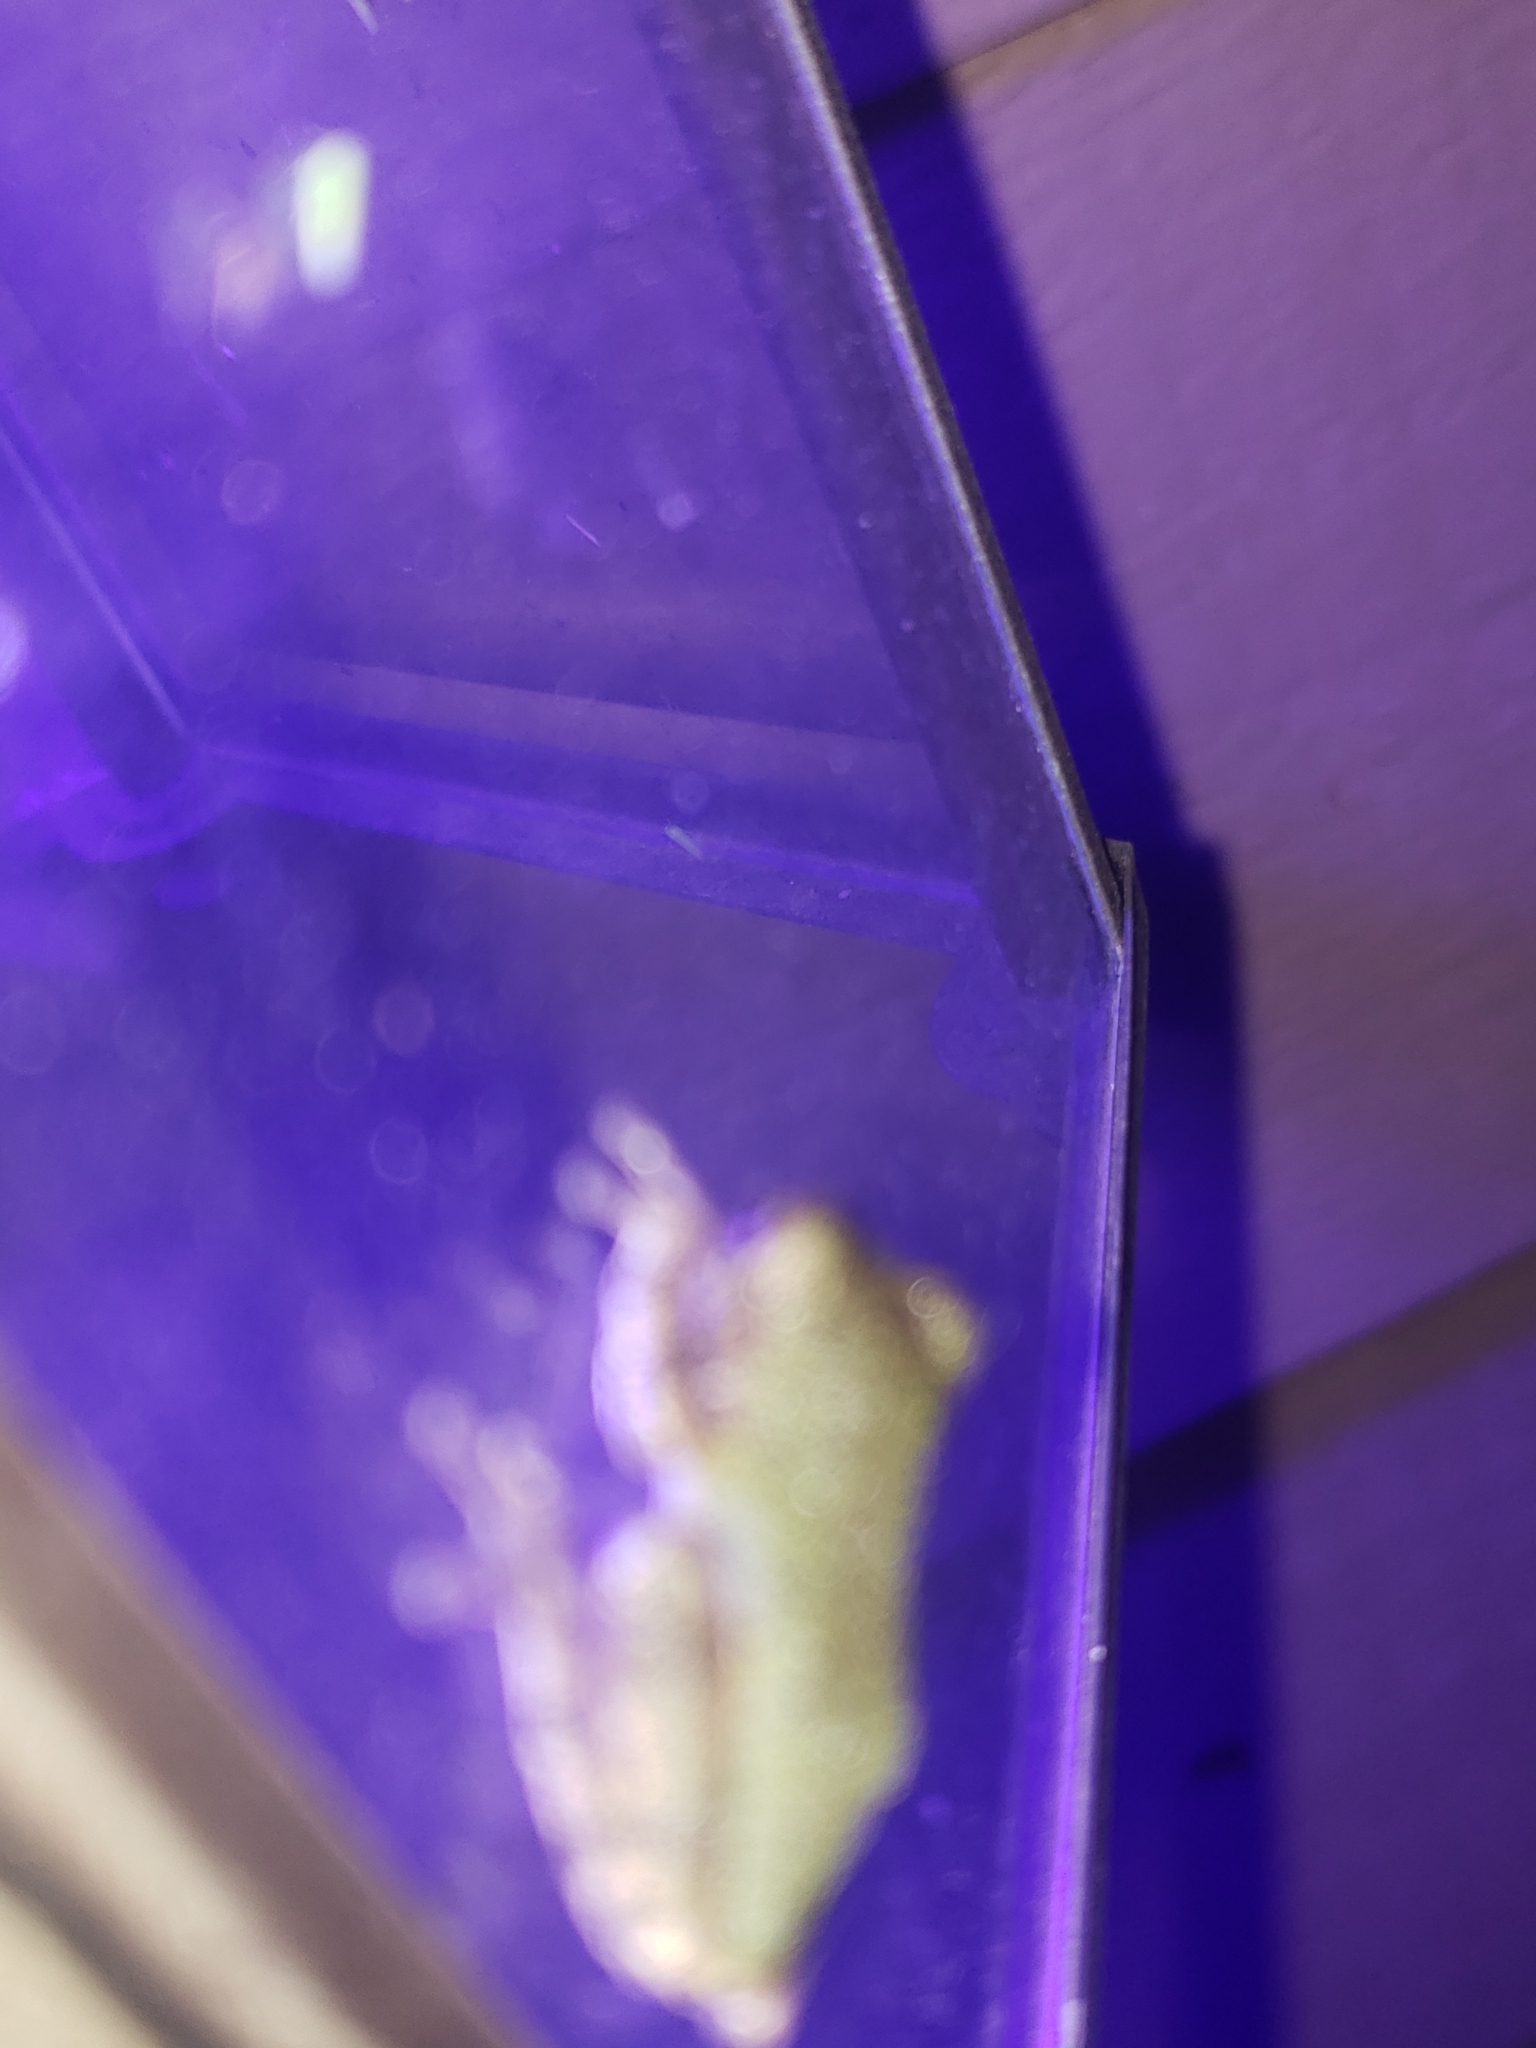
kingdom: Animalia
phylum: Chordata
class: Amphibia
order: Anura
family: Hylidae
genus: Hyla
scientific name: Hyla
